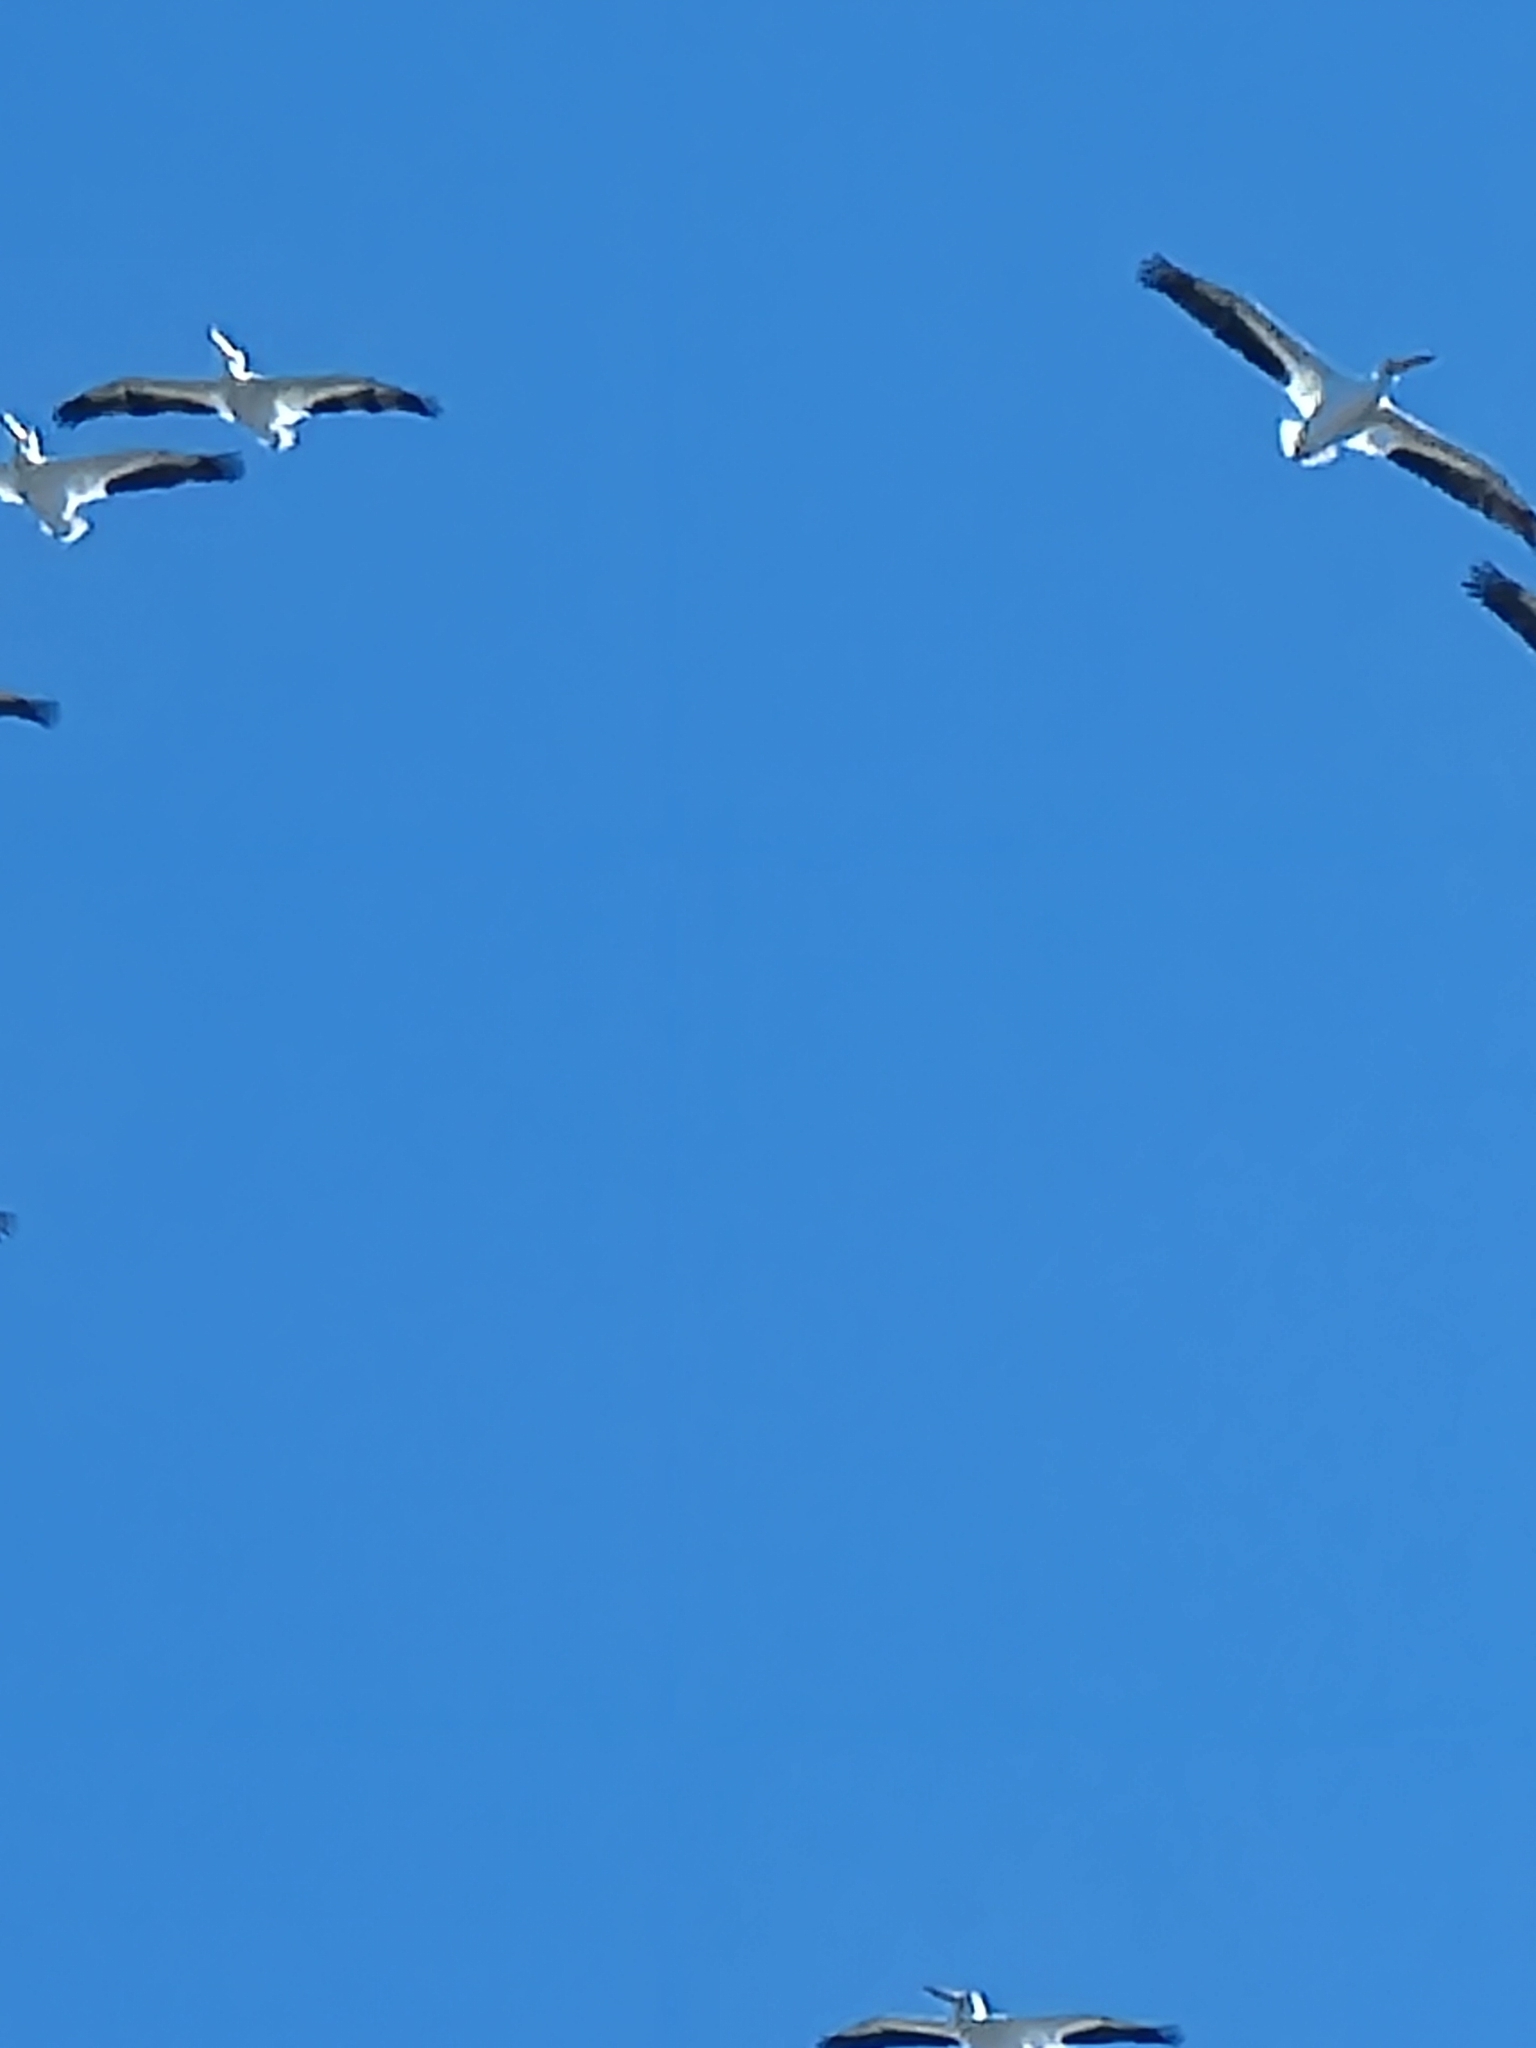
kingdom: Animalia
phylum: Chordata
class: Aves
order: Pelecaniformes
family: Pelecanidae
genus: Pelecanus
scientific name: Pelecanus erythrorhynchos
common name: American white pelican
